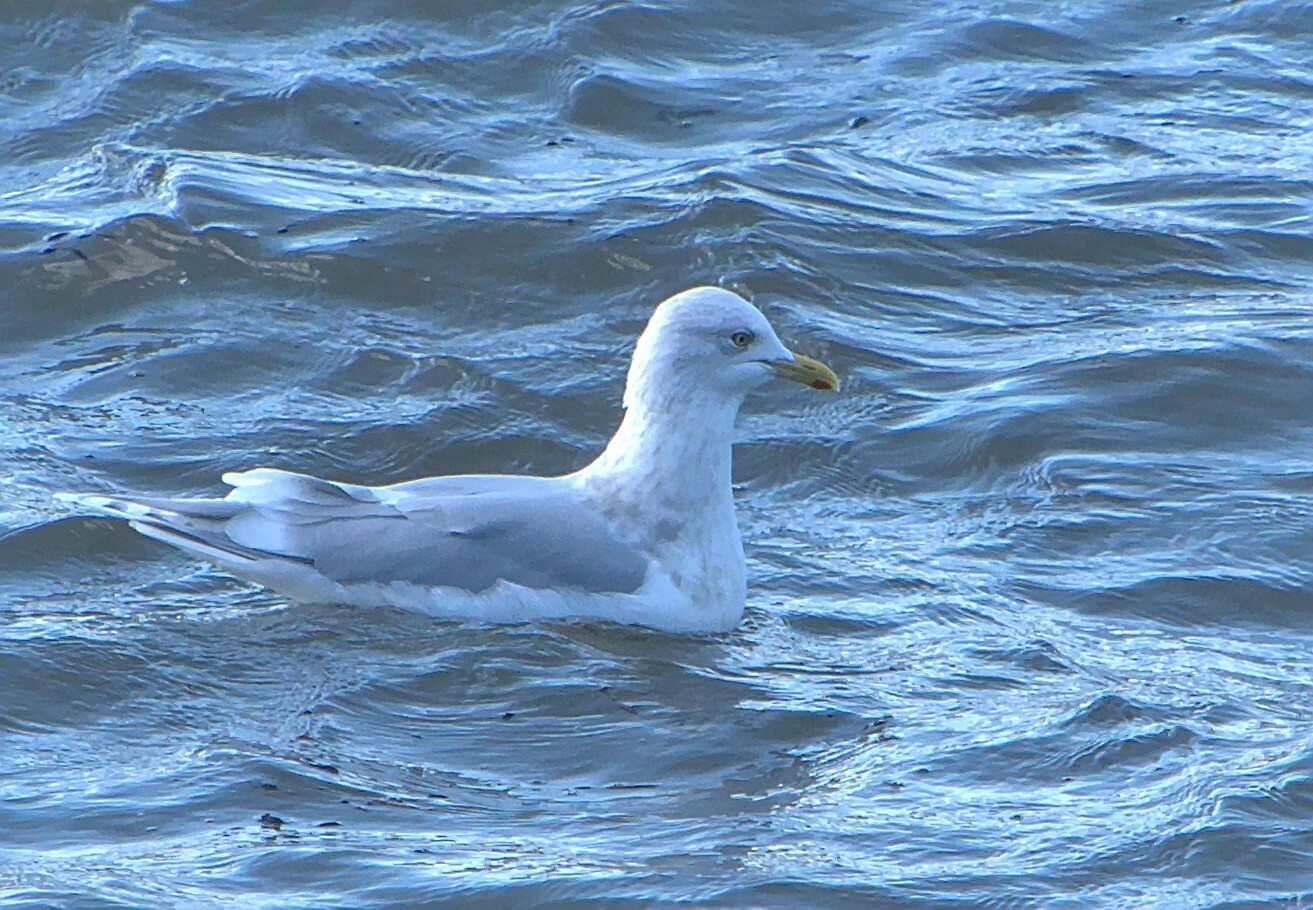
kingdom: Animalia
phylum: Chordata
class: Aves
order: Charadriiformes
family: Laridae
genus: Larus
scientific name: Larus glaucoides
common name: Iceland gull
